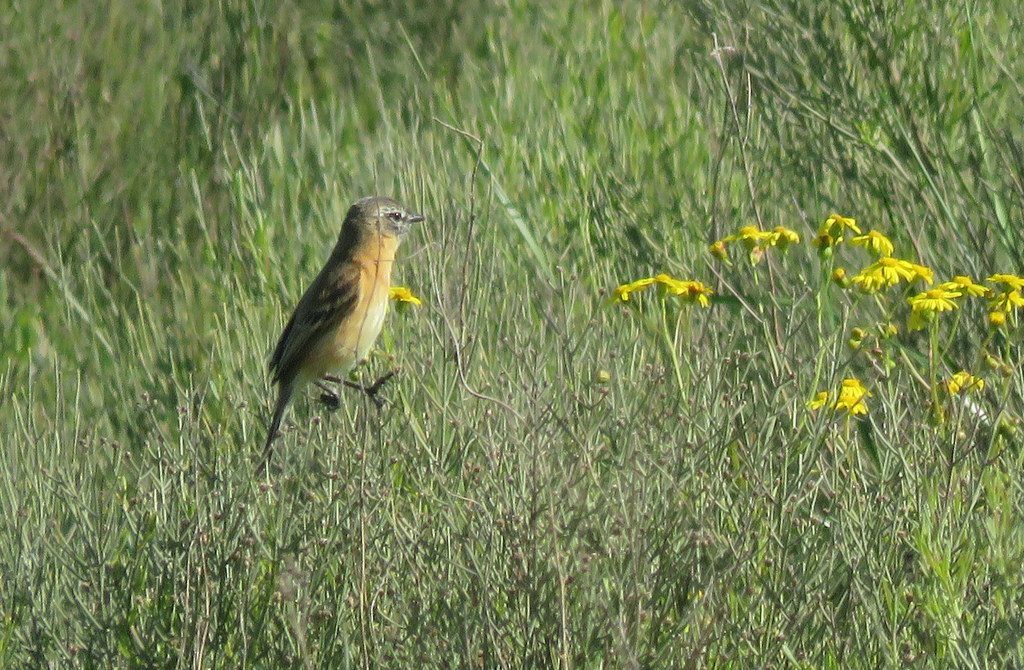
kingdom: Animalia
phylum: Chordata
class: Aves
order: Passeriformes
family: Tyrannidae
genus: Polystictus
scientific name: Polystictus pectoralis
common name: Bearded tachuri
